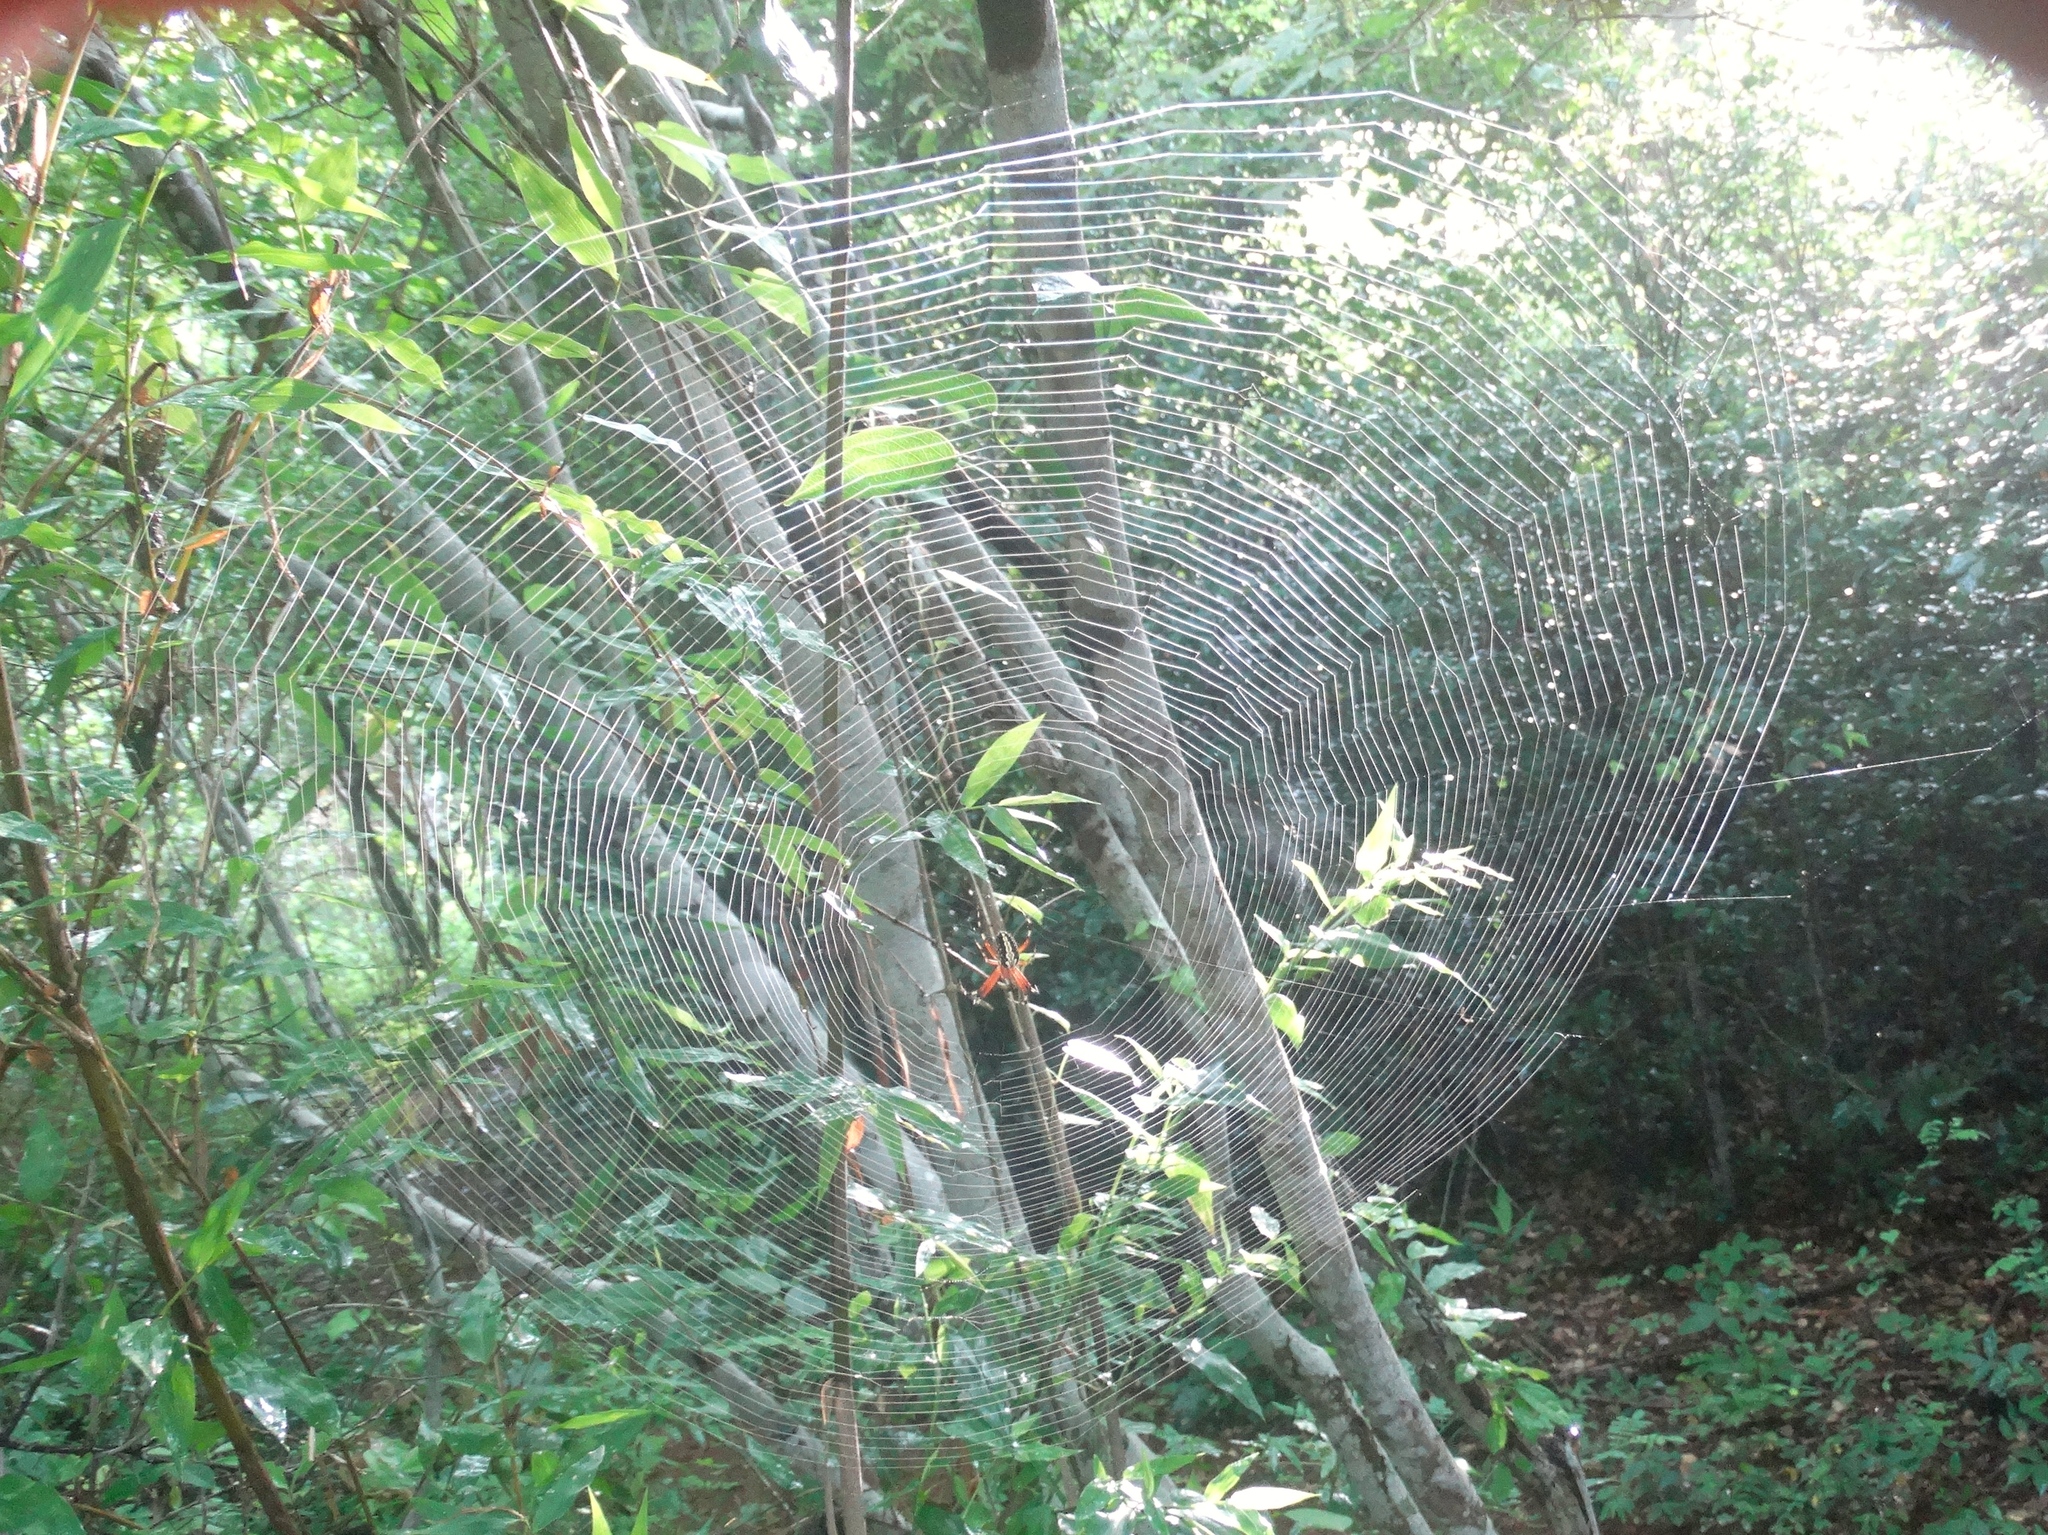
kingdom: Animalia
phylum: Arthropoda
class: Arachnida
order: Araneae
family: Araneidae
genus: Neoscona
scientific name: Neoscona oaxacensis
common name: Orb weavers
